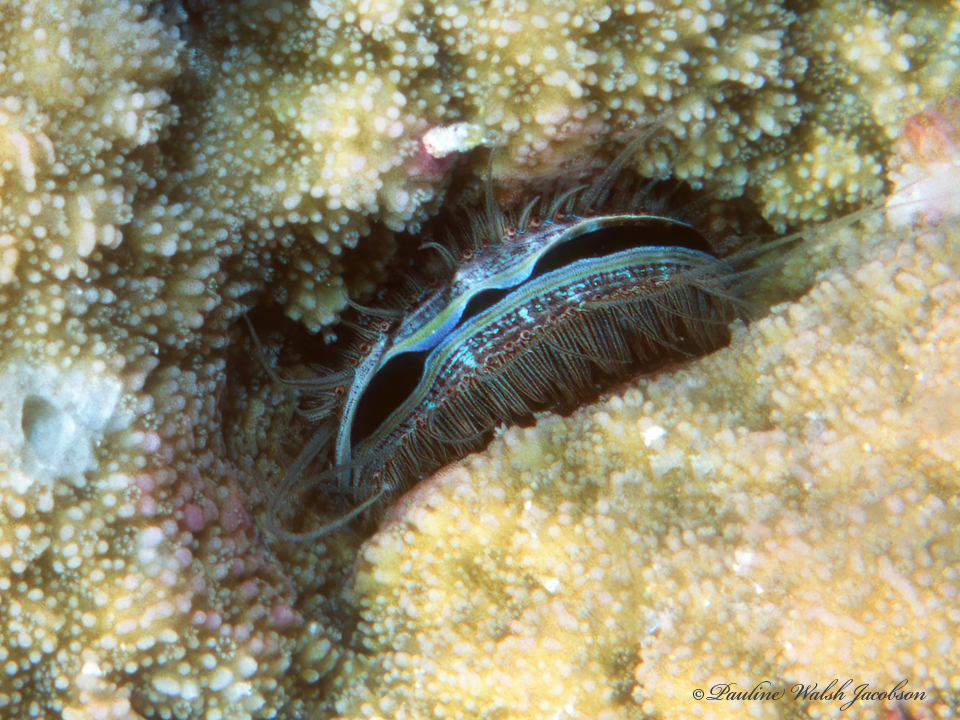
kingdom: Animalia
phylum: Mollusca
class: Bivalvia
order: Pectinida
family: Pectinidae
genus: Pedum
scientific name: Pedum spondyloideum
